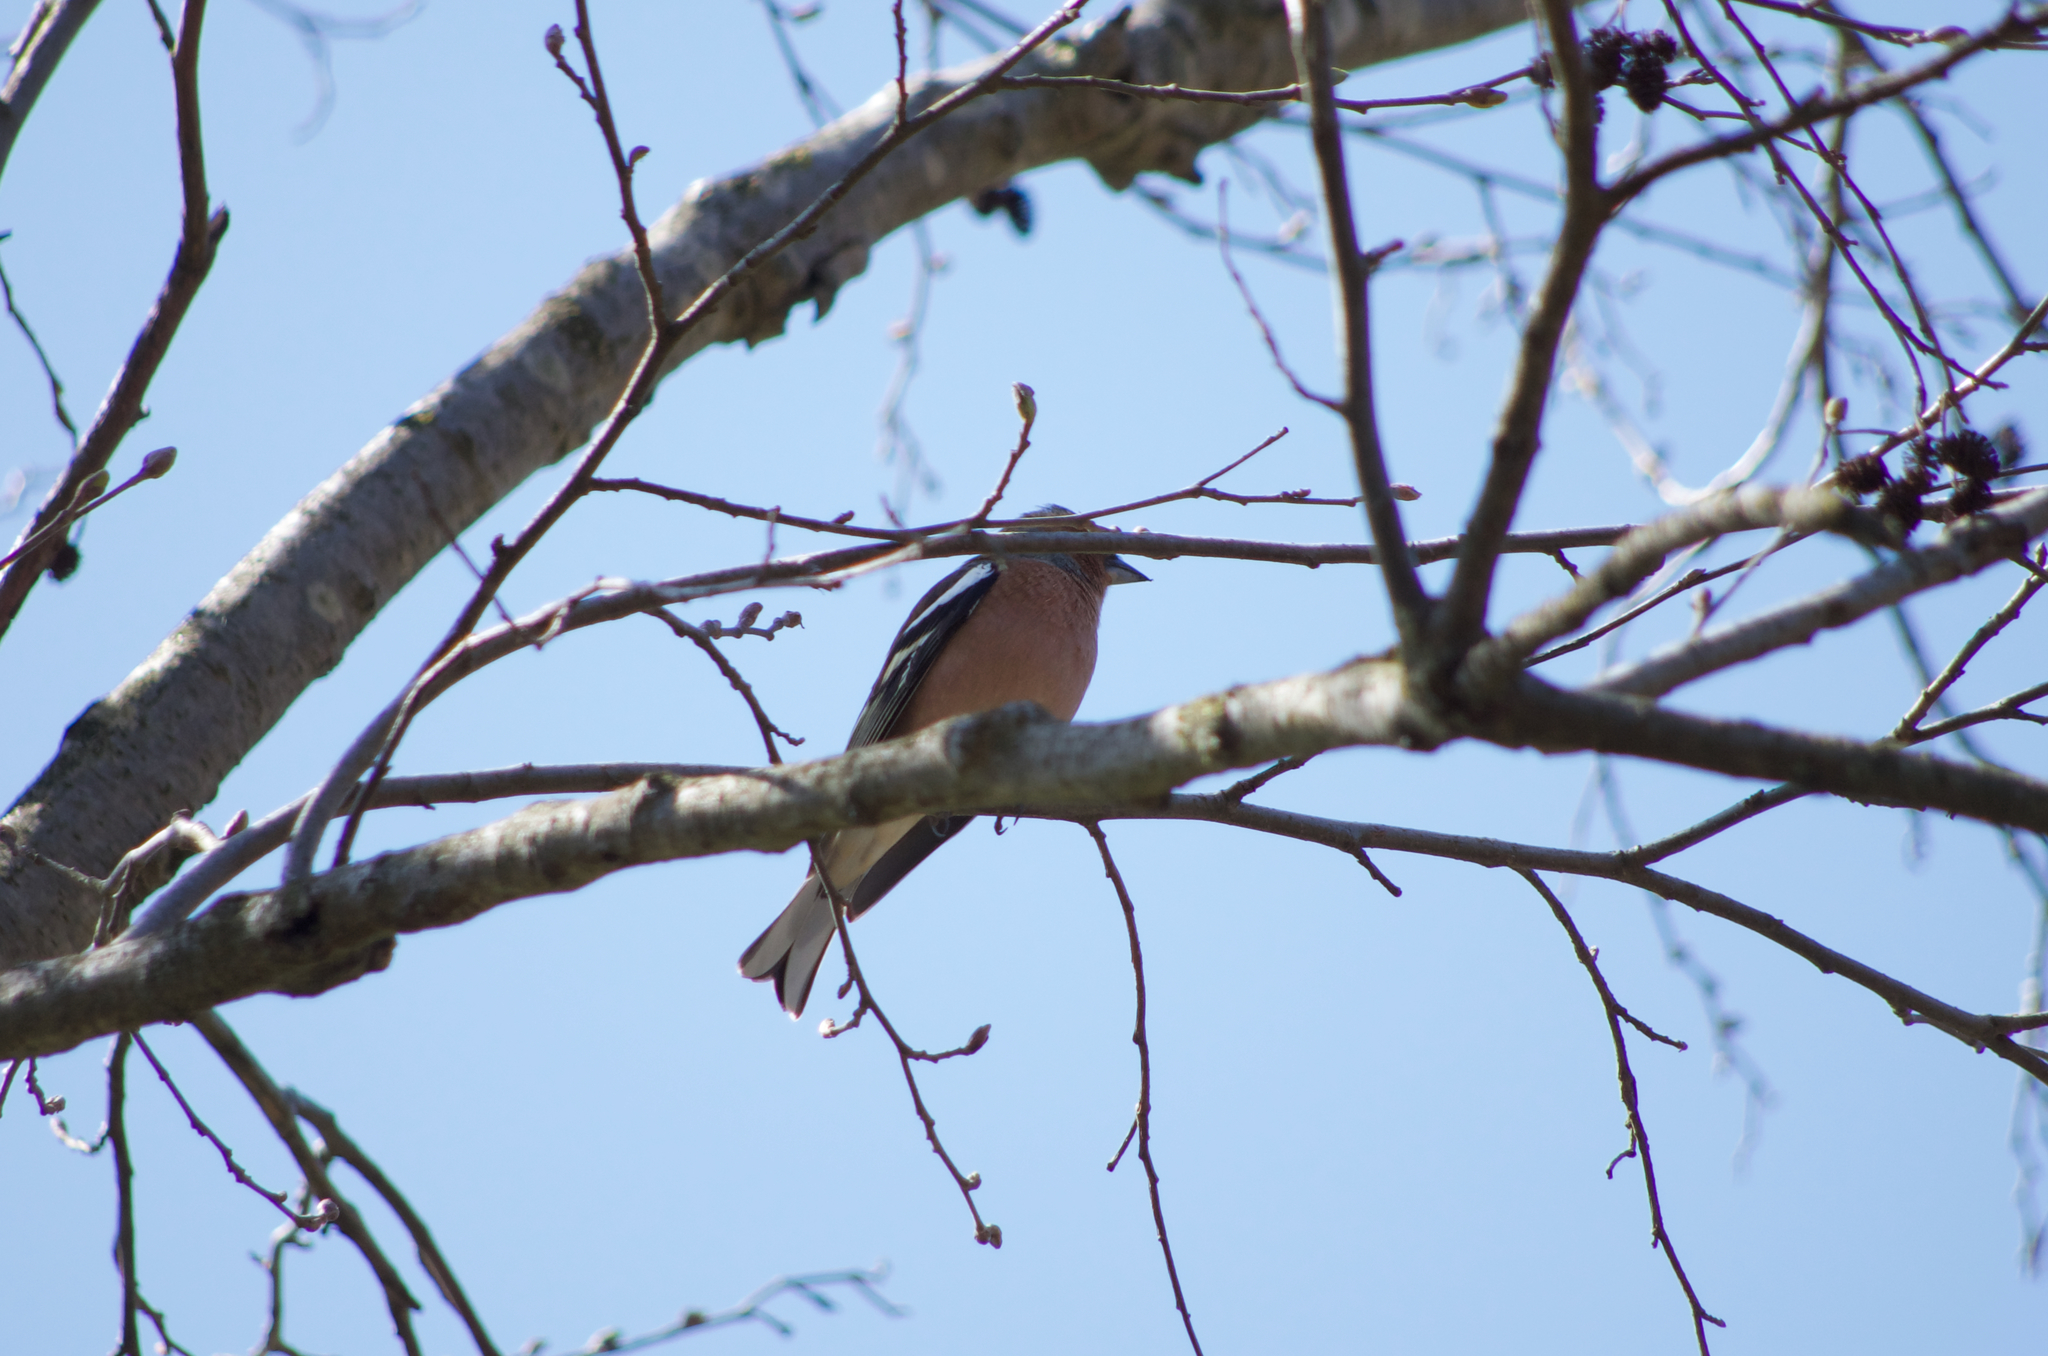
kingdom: Animalia
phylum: Chordata
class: Aves
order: Passeriformes
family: Fringillidae
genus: Fringilla
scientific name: Fringilla coelebs
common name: Common chaffinch
